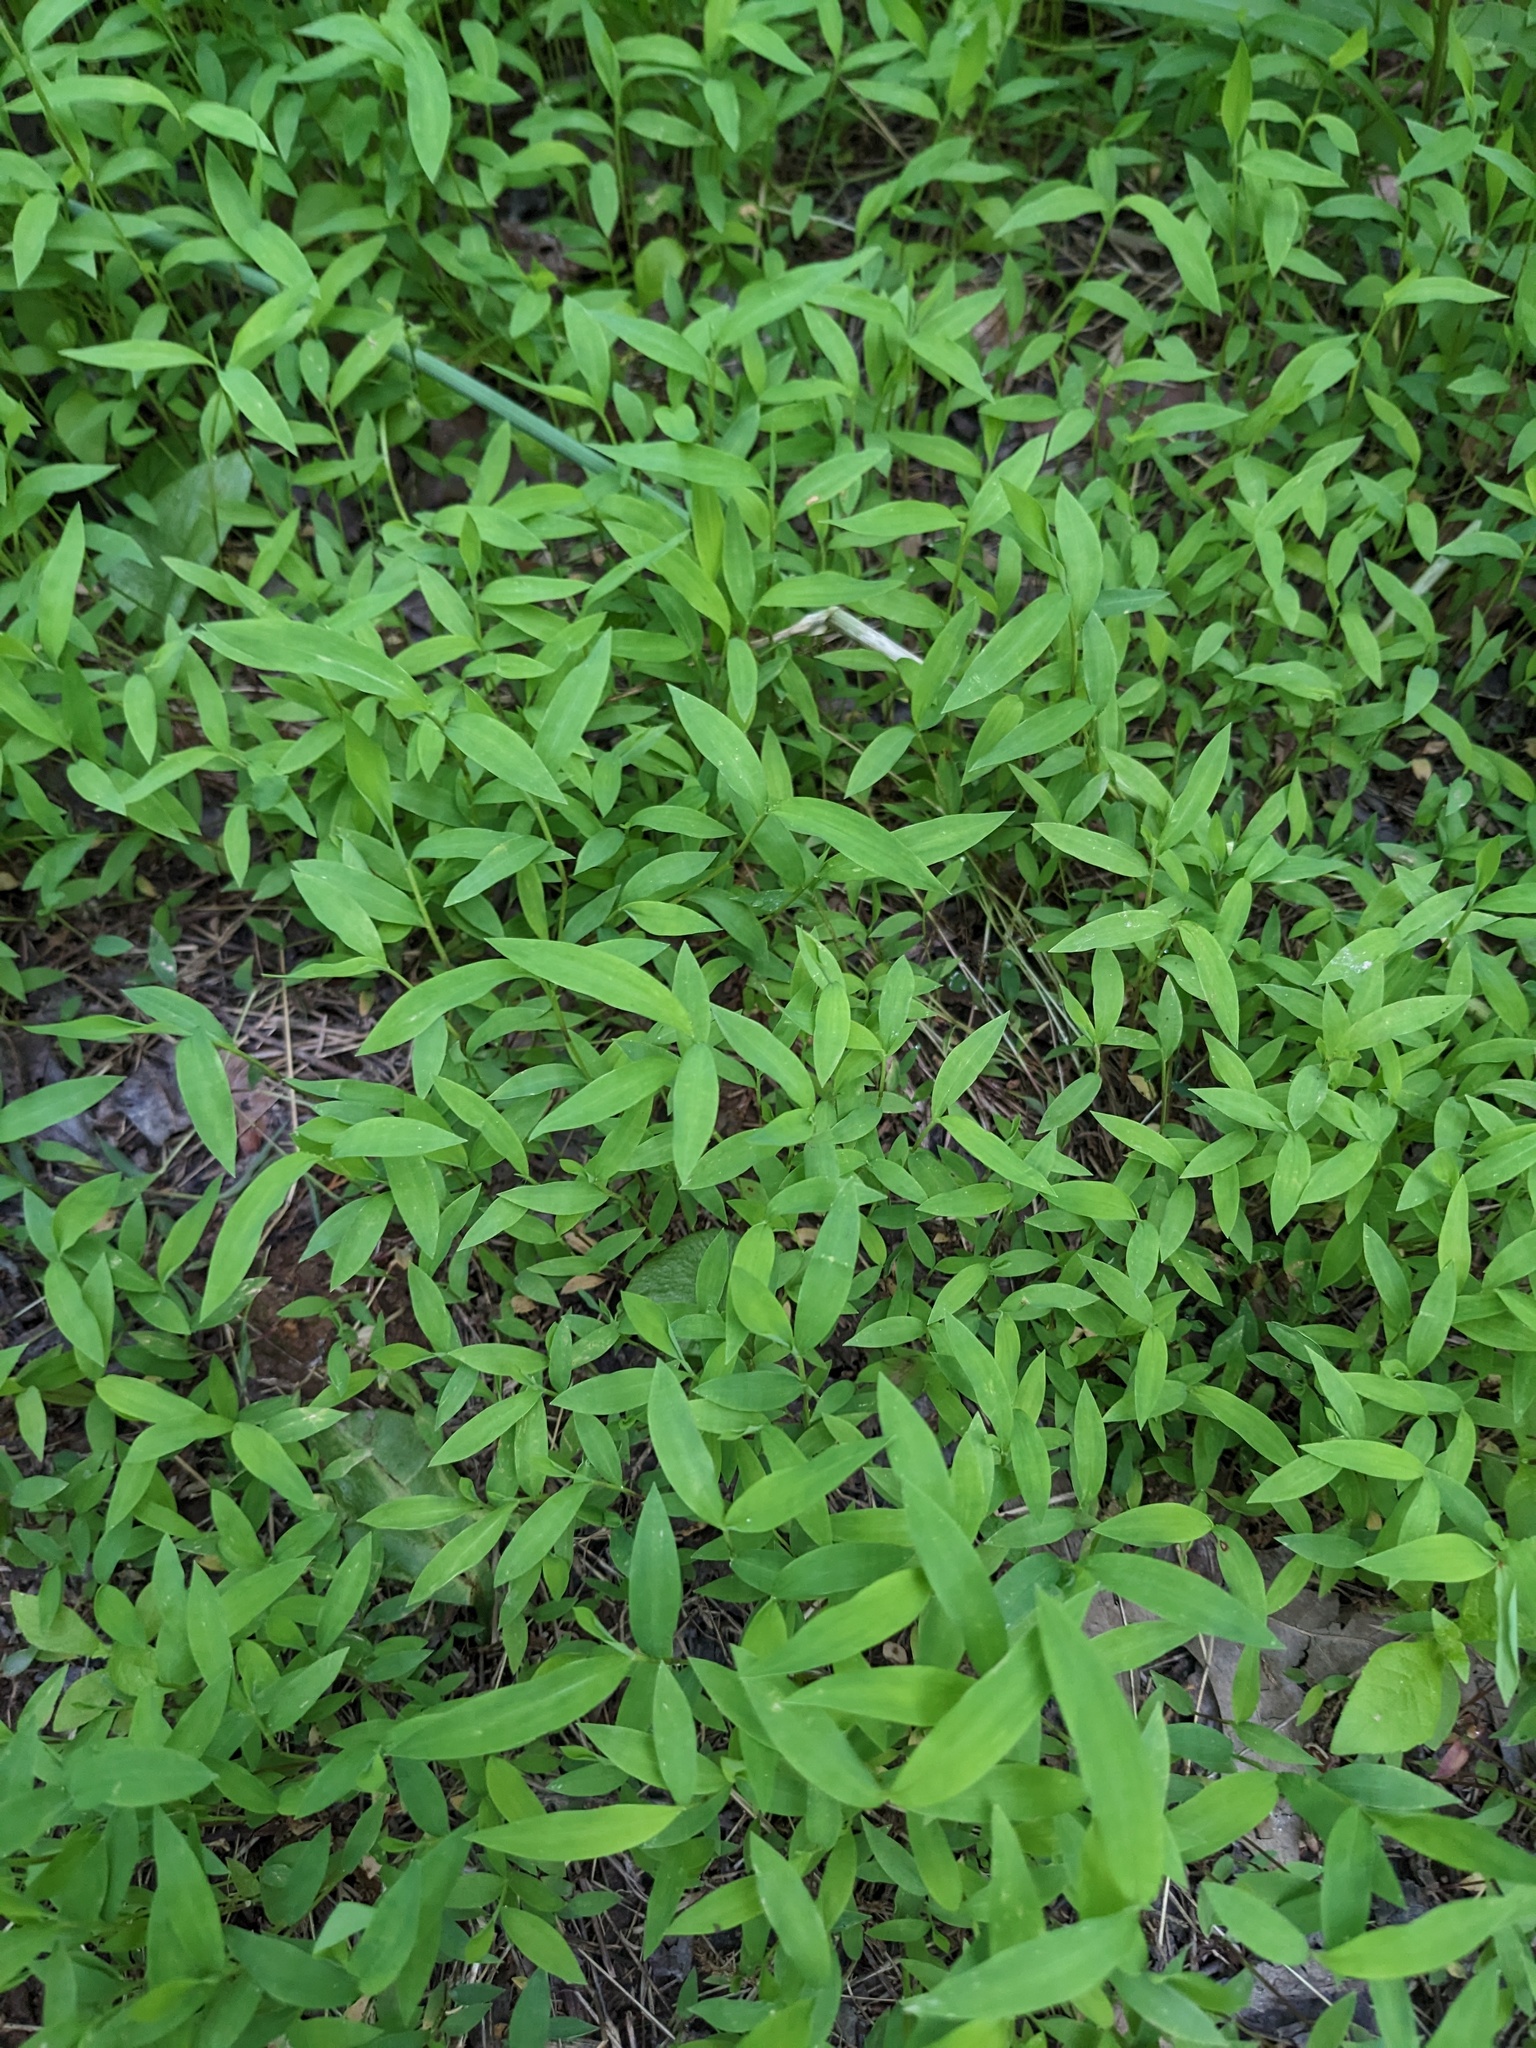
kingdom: Plantae
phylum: Tracheophyta
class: Liliopsida
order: Poales
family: Poaceae
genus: Microstegium
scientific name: Microstegium vimineum
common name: Japanese stiltgrass
